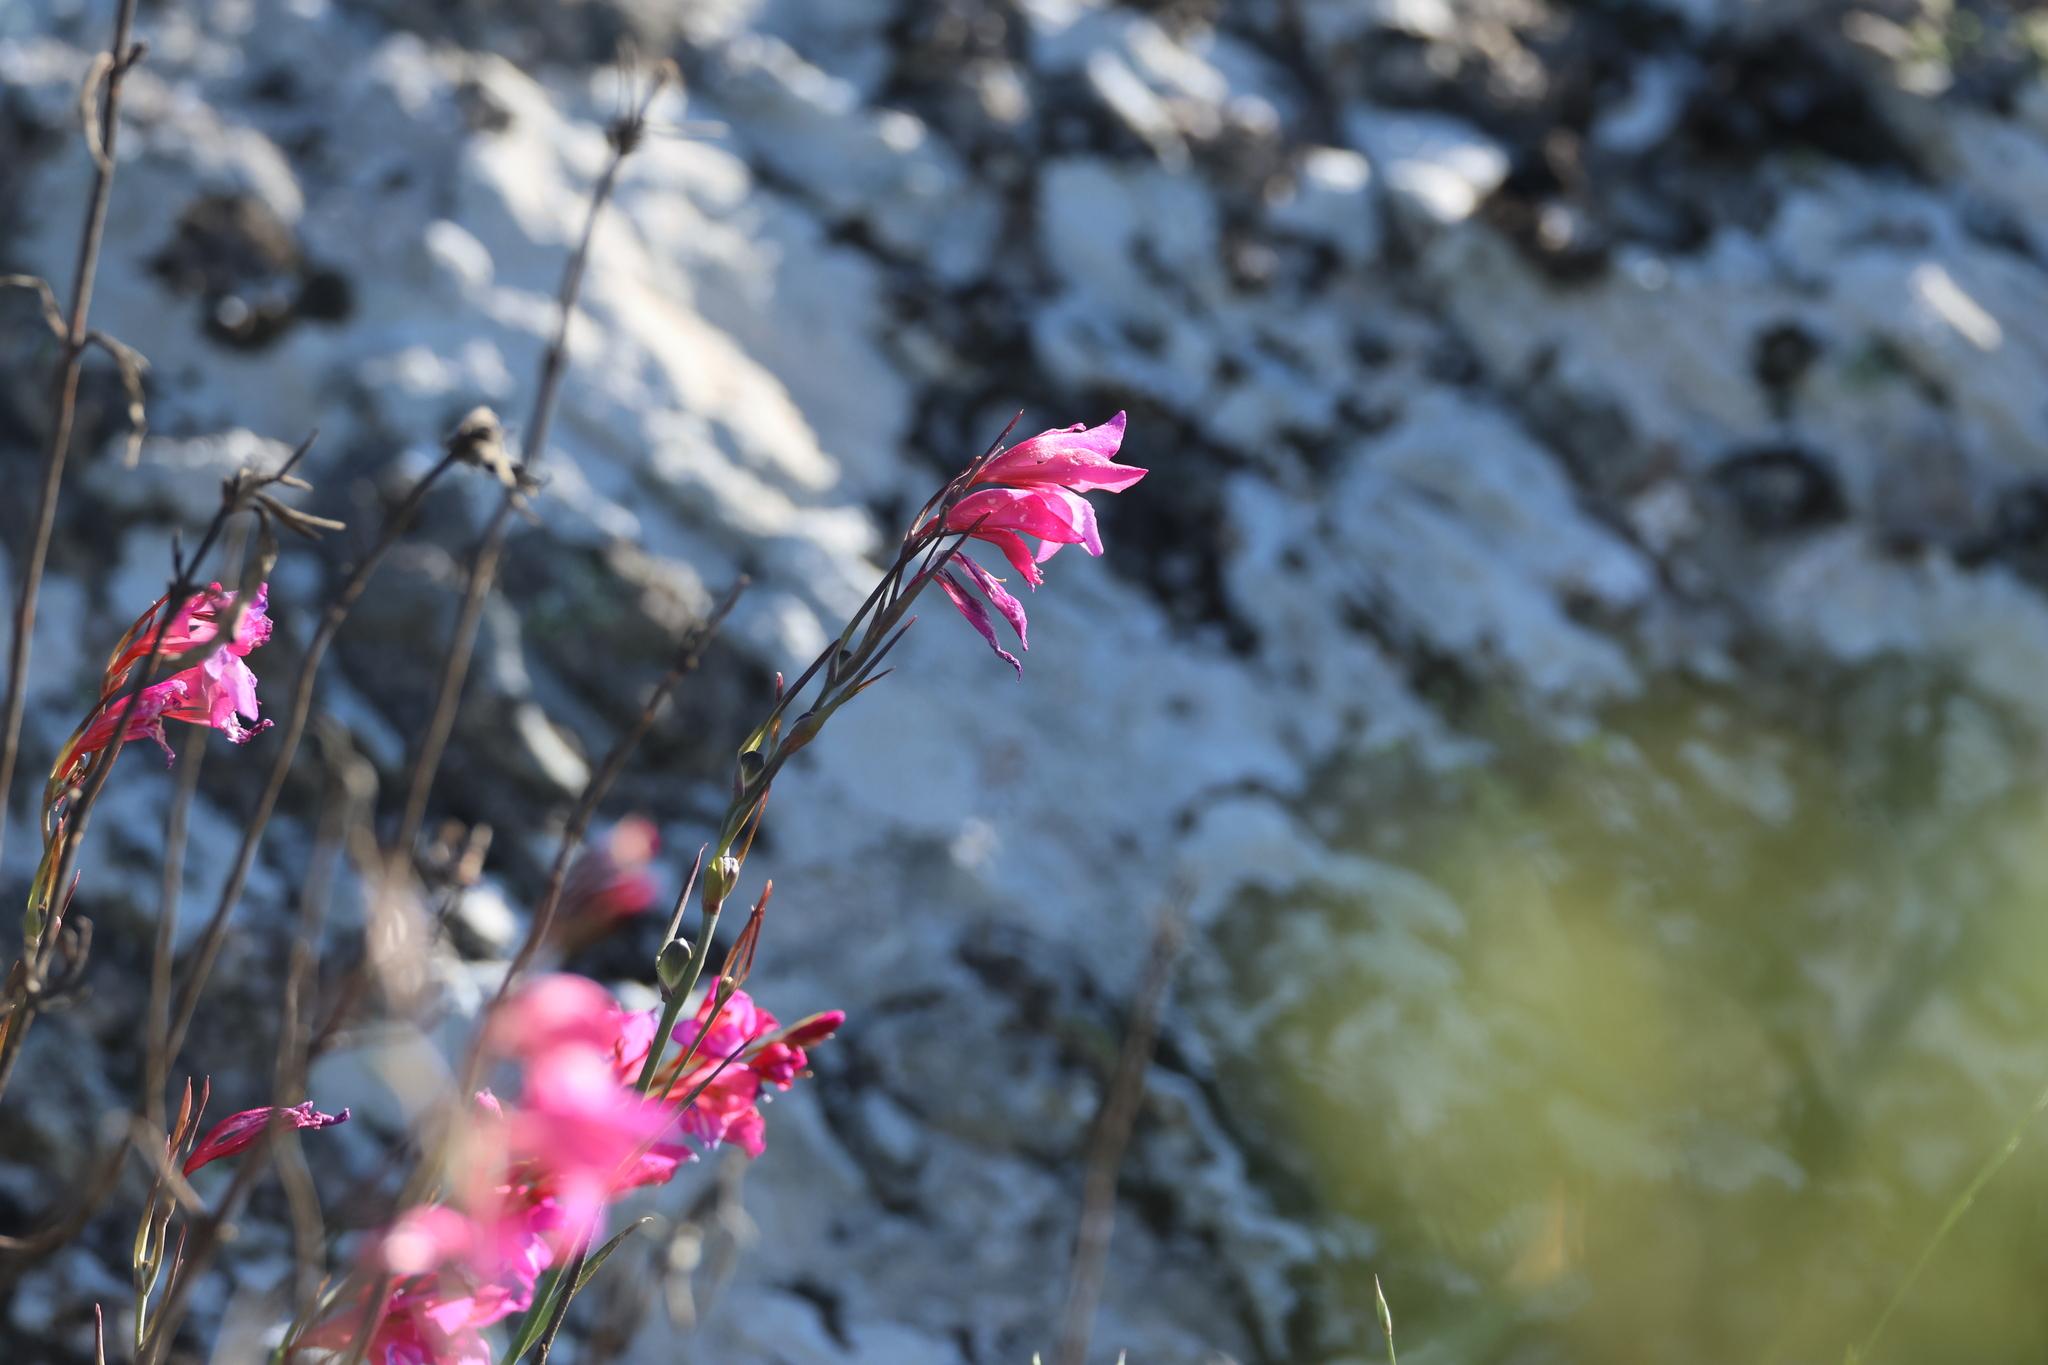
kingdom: Plantae
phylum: Tracheophyta
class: Liliopsida
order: Asparagales
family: Iridaceae
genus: Gladiolus
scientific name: Gladiolus illyricus
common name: Wild gladiolus
